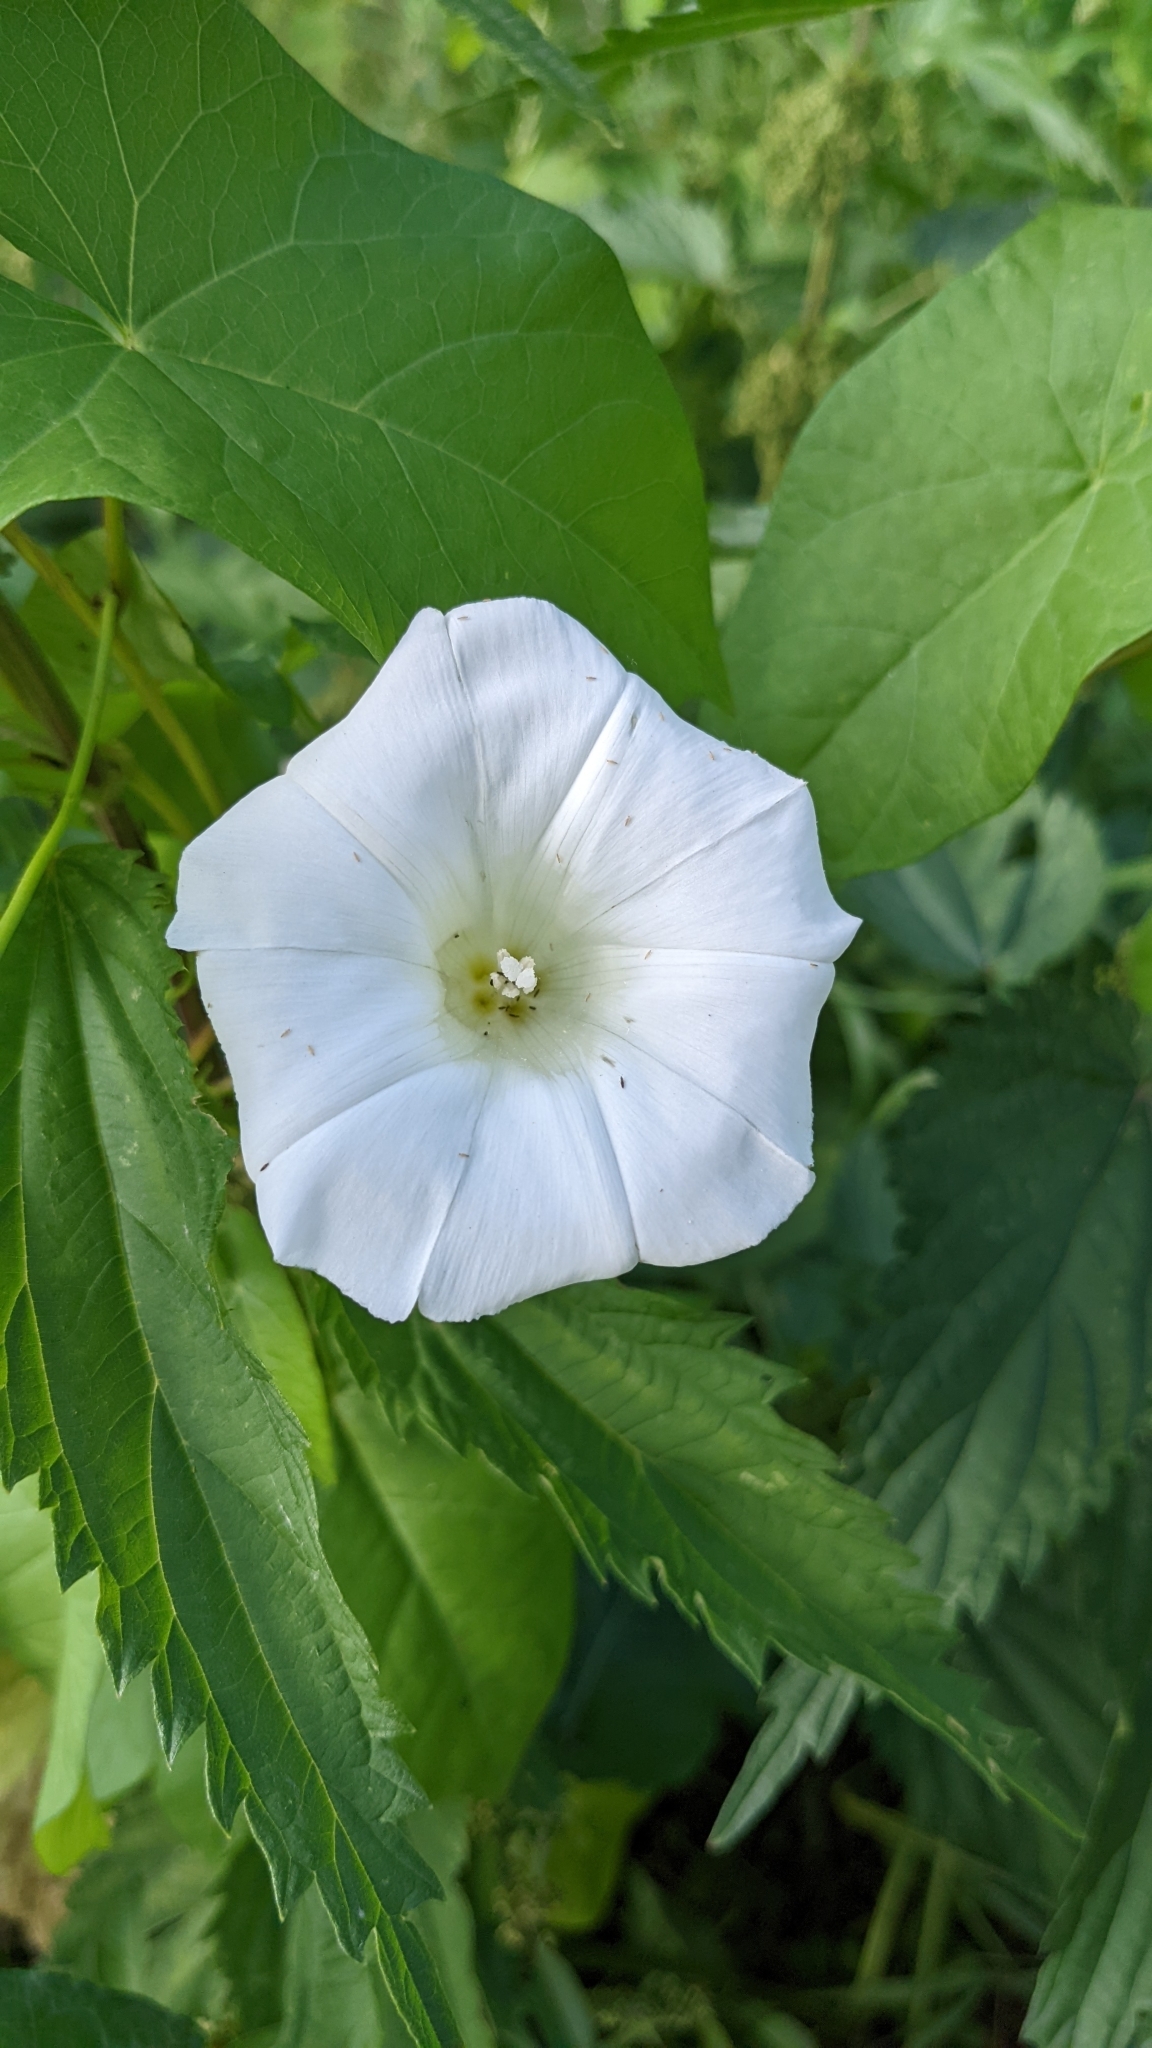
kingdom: Plantae
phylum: Tracheophyta
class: Magnoliopsida
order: Solanales
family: Convolvulaceae
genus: Calystegia
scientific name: Calystegia sepium
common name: Hedge bindweed
